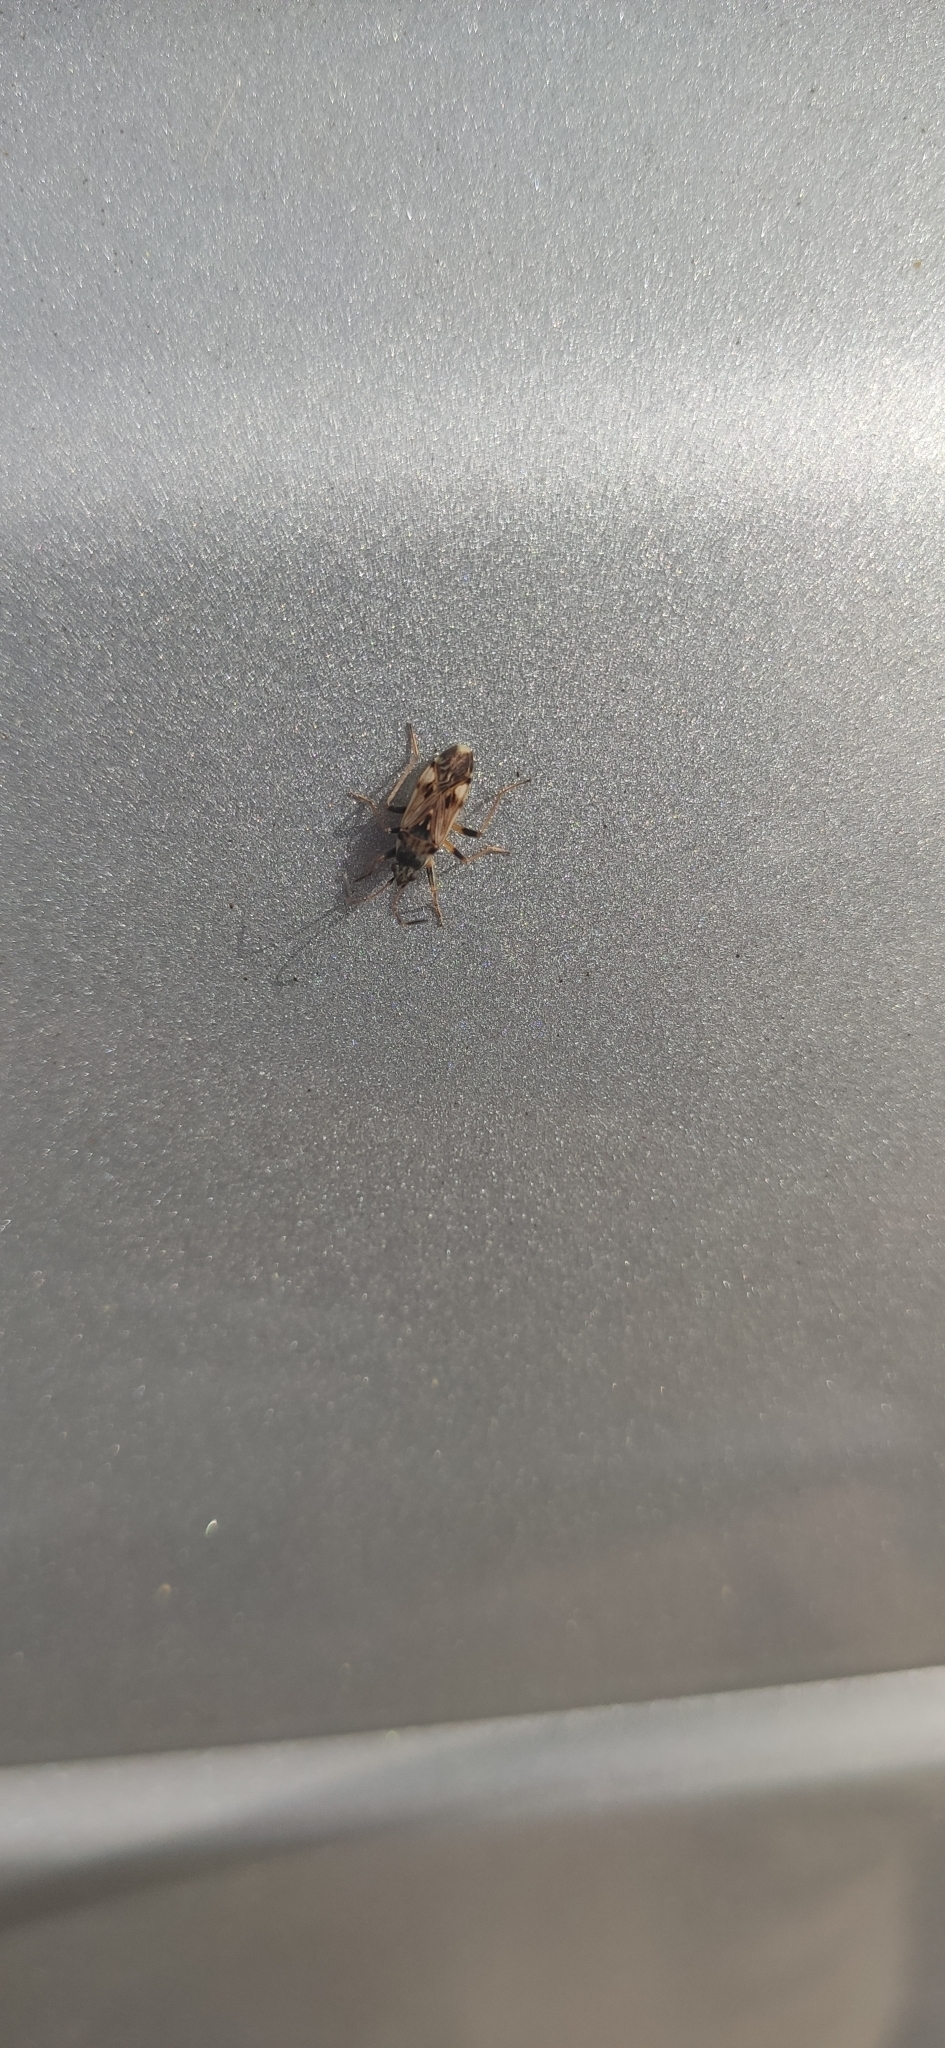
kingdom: Animalia
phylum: Arthropoda
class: Insecta
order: Hemiptera
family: Rhyparochromidae
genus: Beosus
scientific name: Beosus maritimus
